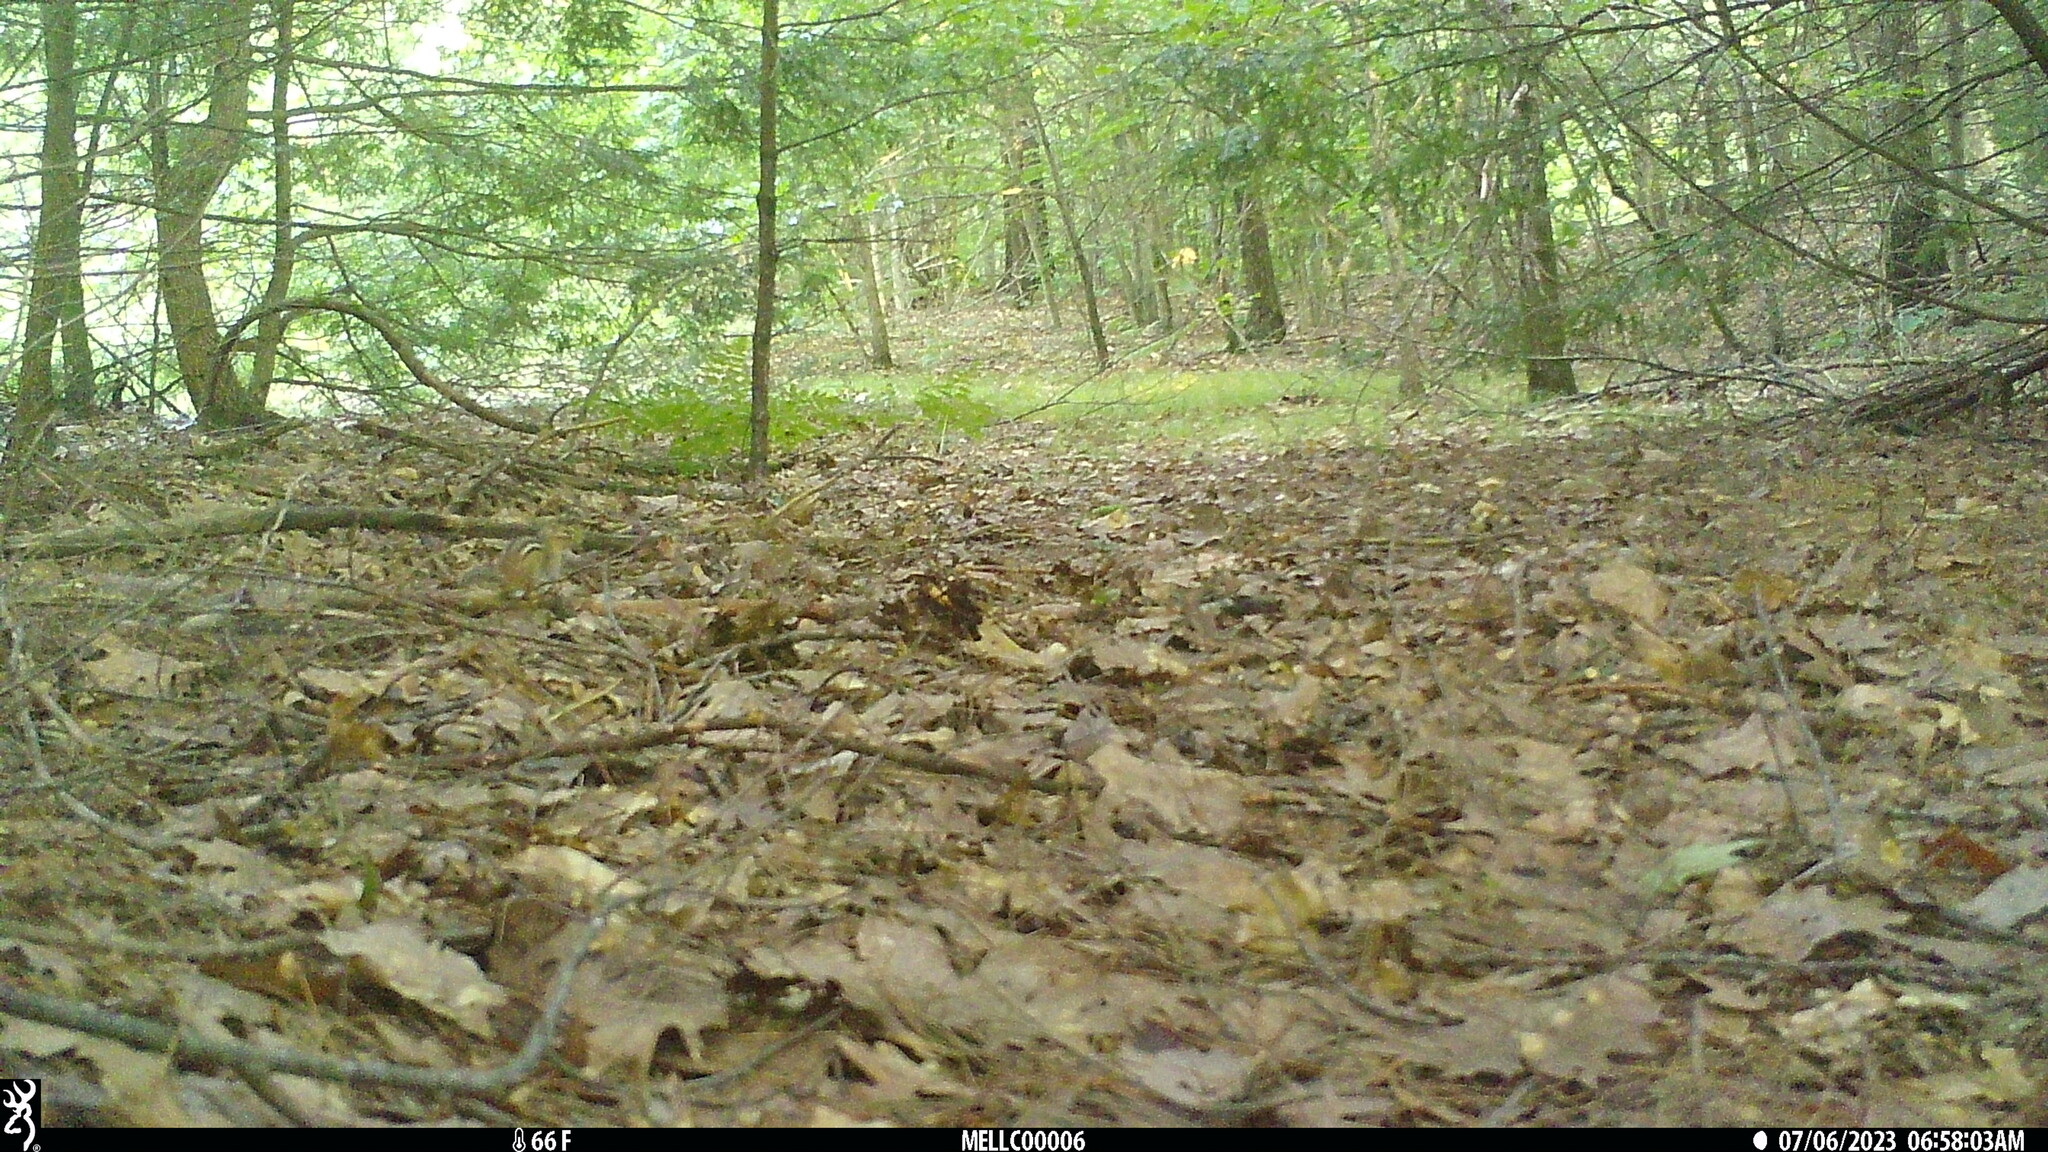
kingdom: Animalia
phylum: Chordata
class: Mammalia
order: Rodentia
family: Sciuridae
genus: Tamias
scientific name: Tamias striatus
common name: Eastern chipmunk
